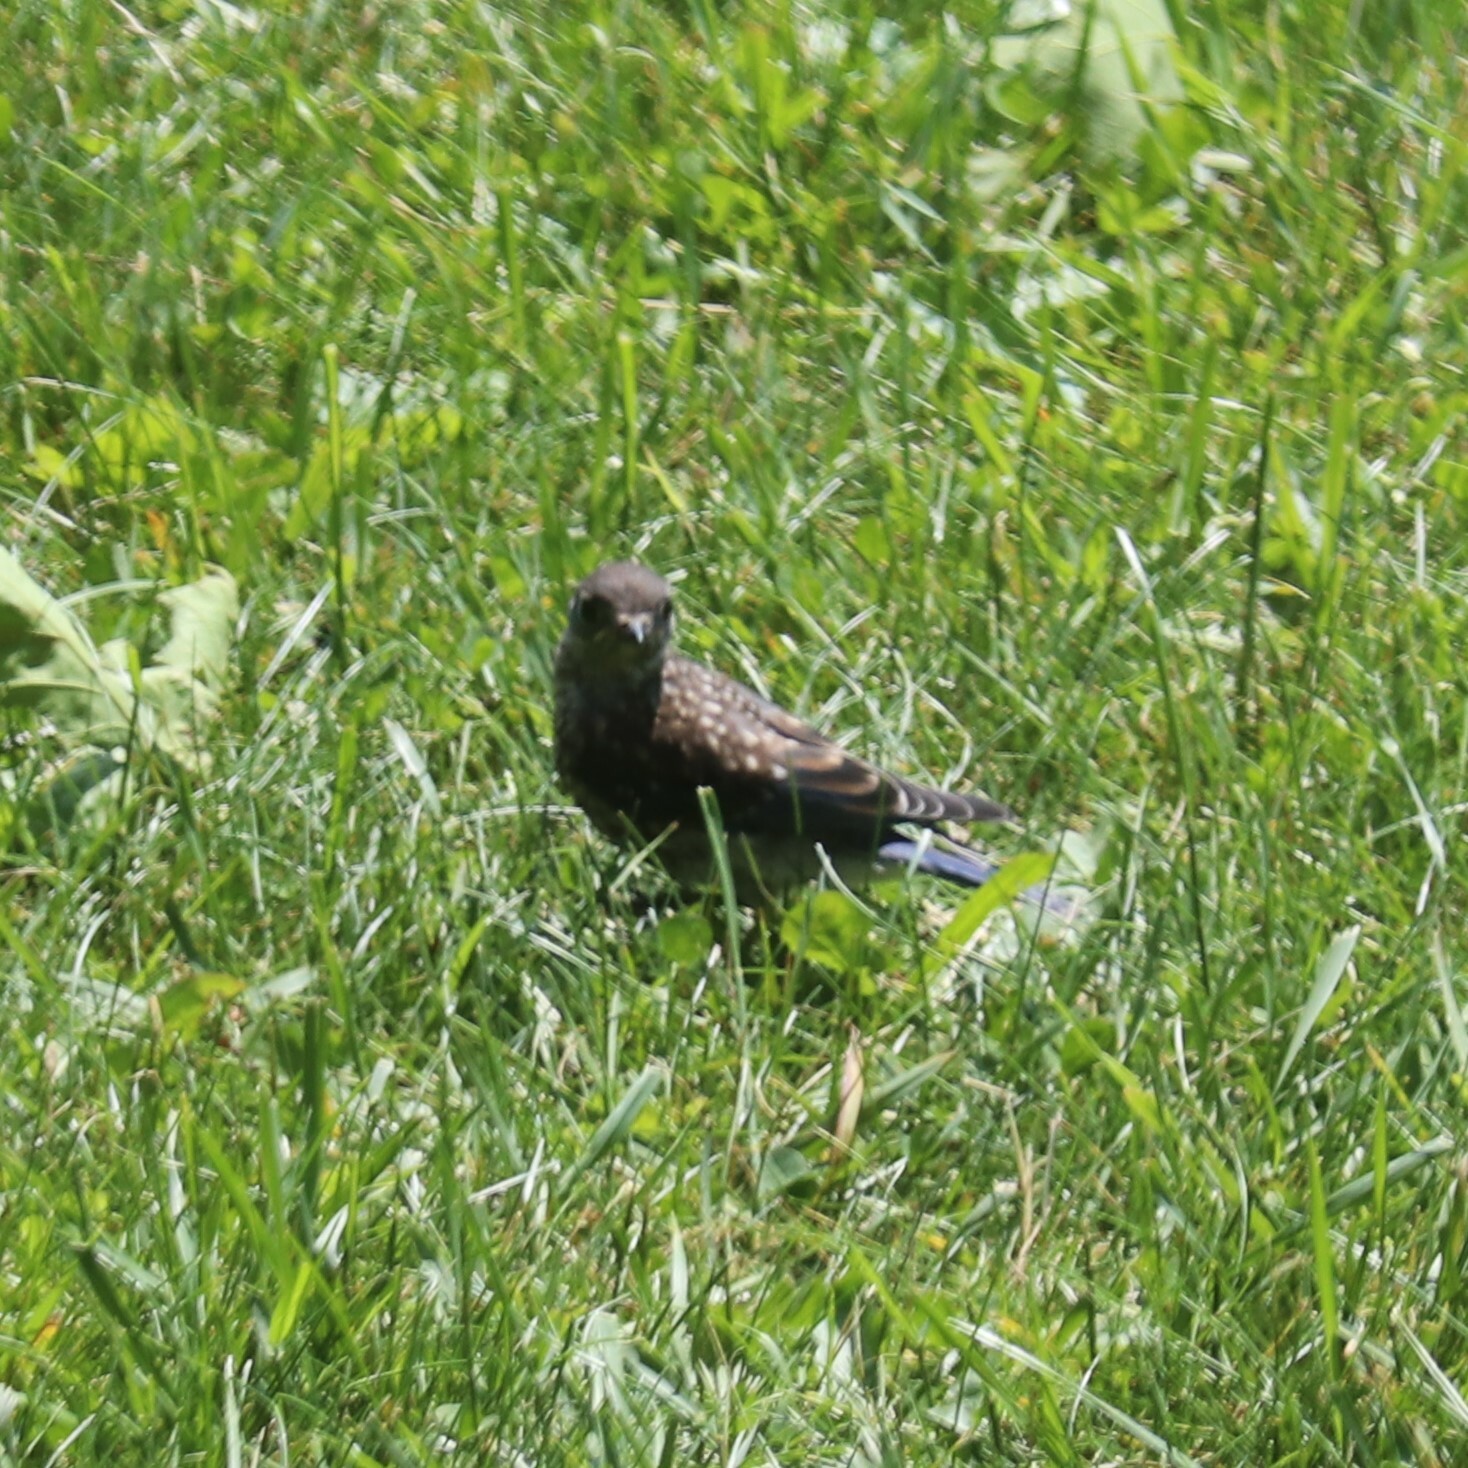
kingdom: Animalia
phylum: Chordata
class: Aves
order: Passeriformes
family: Turdidae
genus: Sialia
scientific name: Sialia sialis
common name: Eastern bluebird
